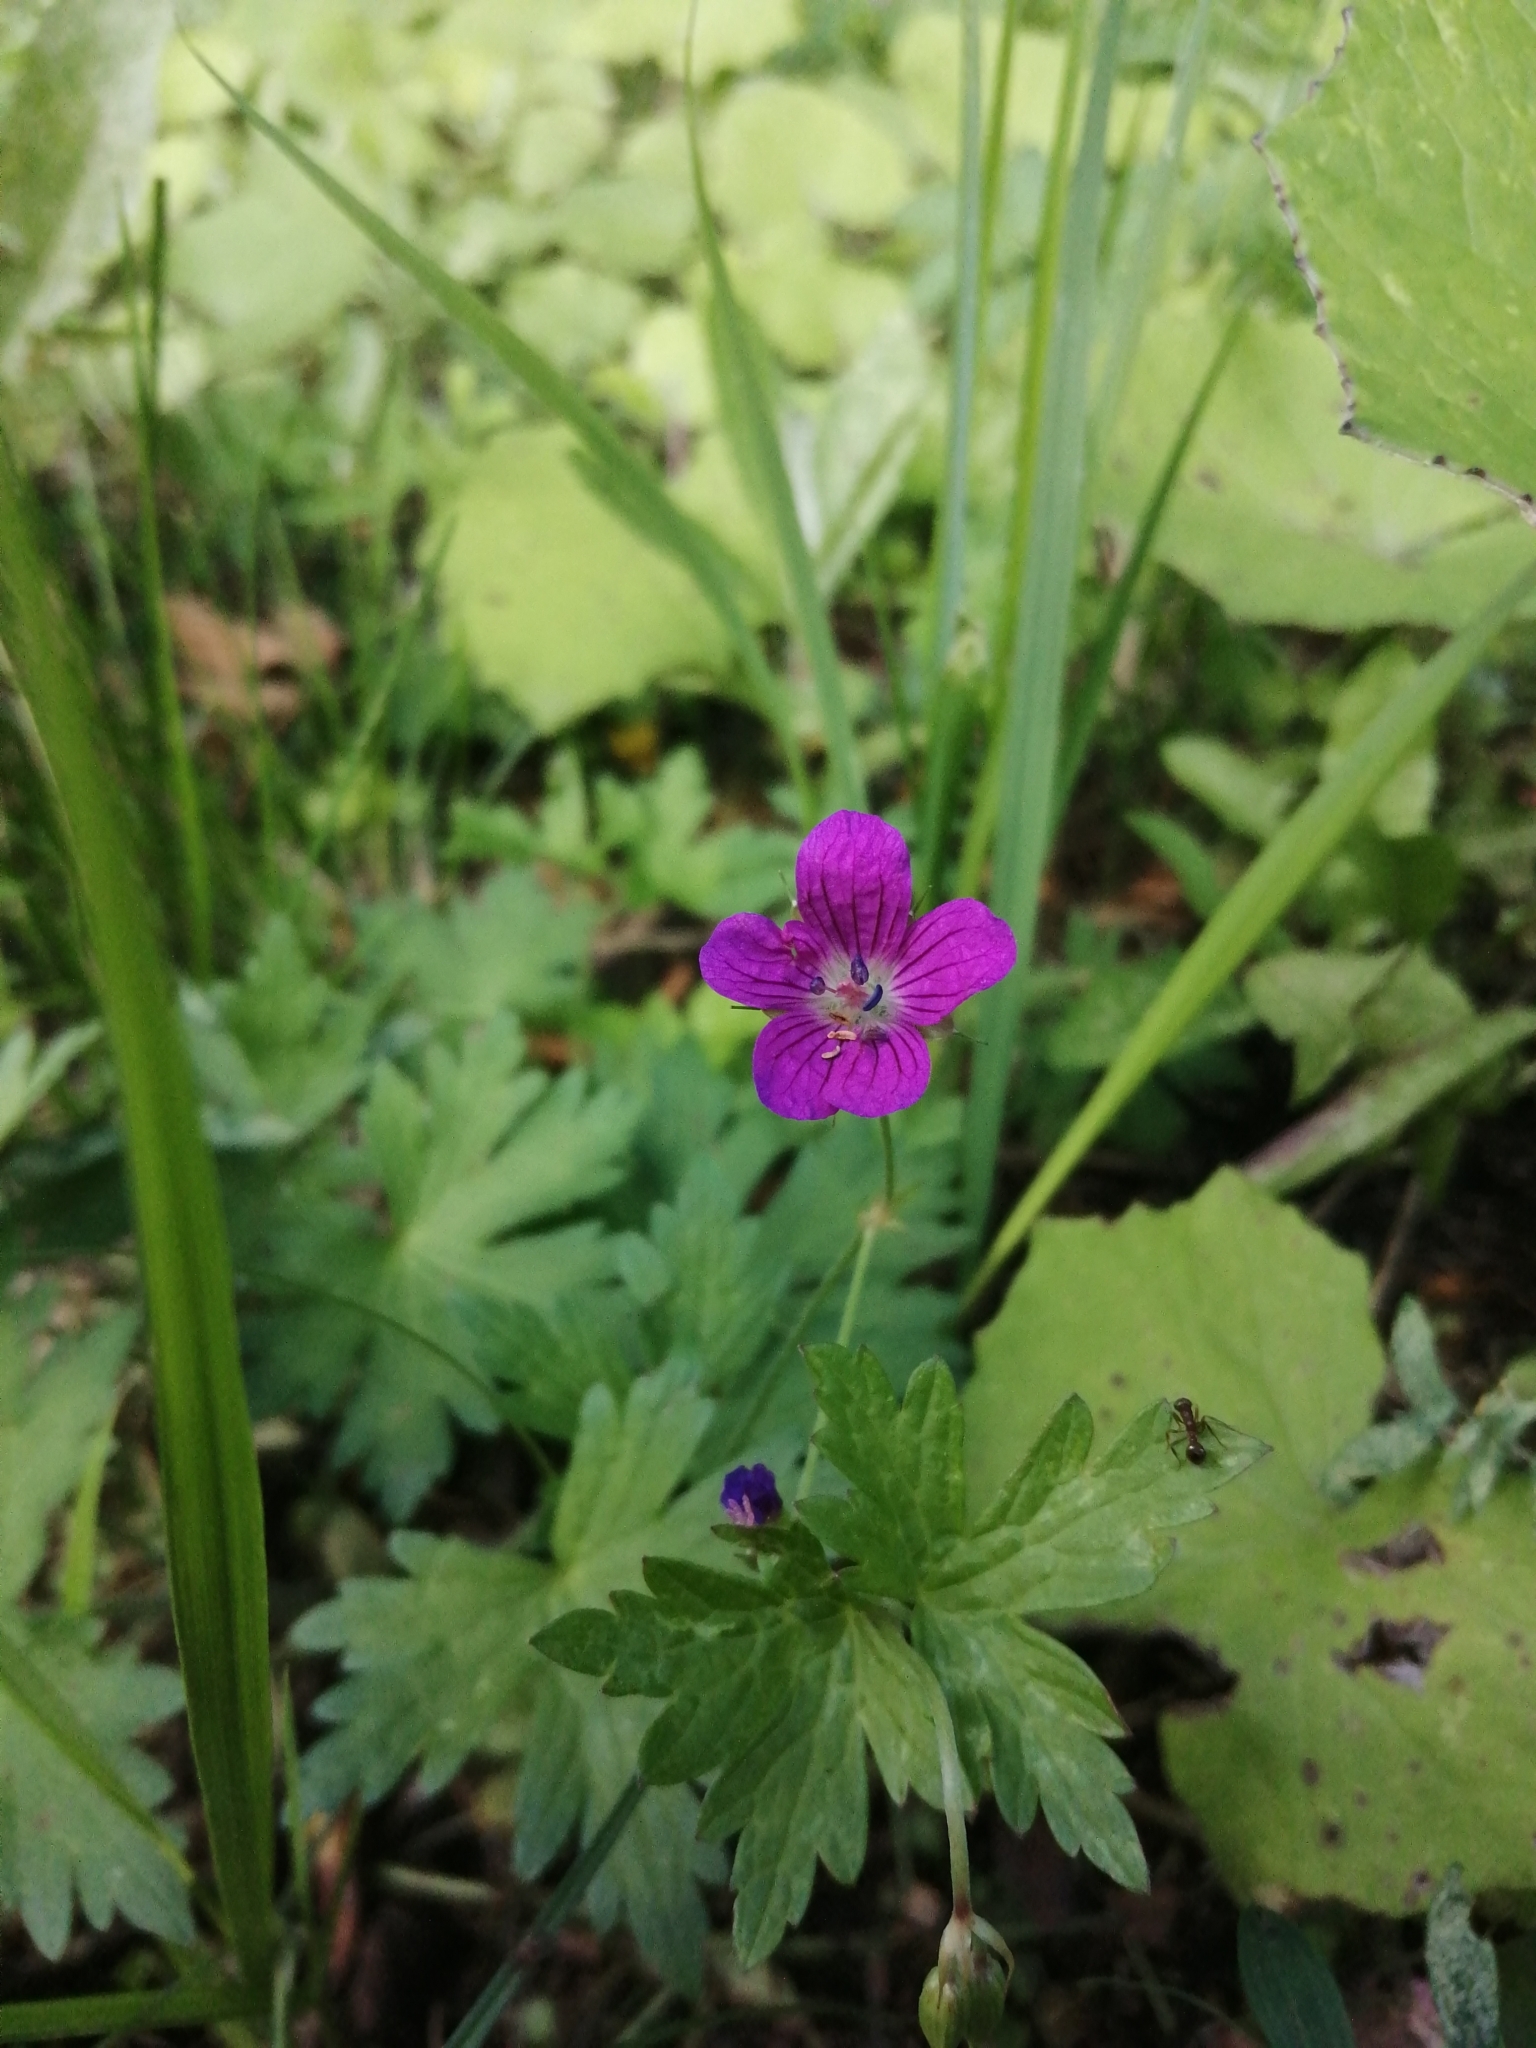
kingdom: Plantae
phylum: Tracheophyta
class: Magnoliopsida
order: Geraniales
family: Geraniaceae
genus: Geranium
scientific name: Geranium palustre
